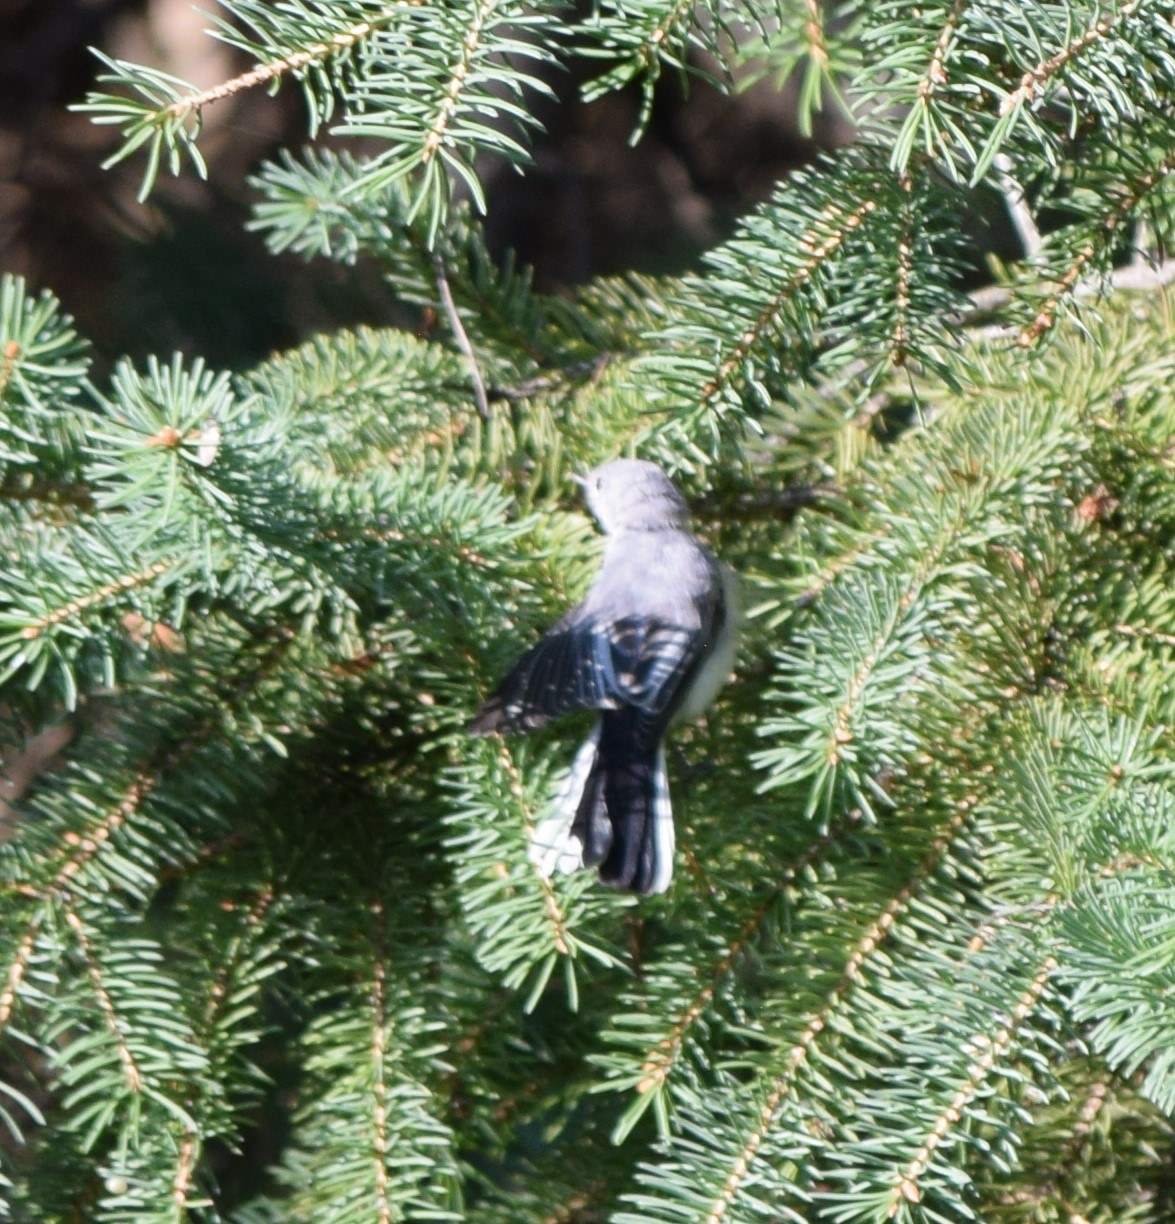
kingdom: Animalia
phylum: Chordata
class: Aves
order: Passeriformes
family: Polioptilidae
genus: Polioptila
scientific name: Polioptila caerulea
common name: Blue-gray gnatcatcher
